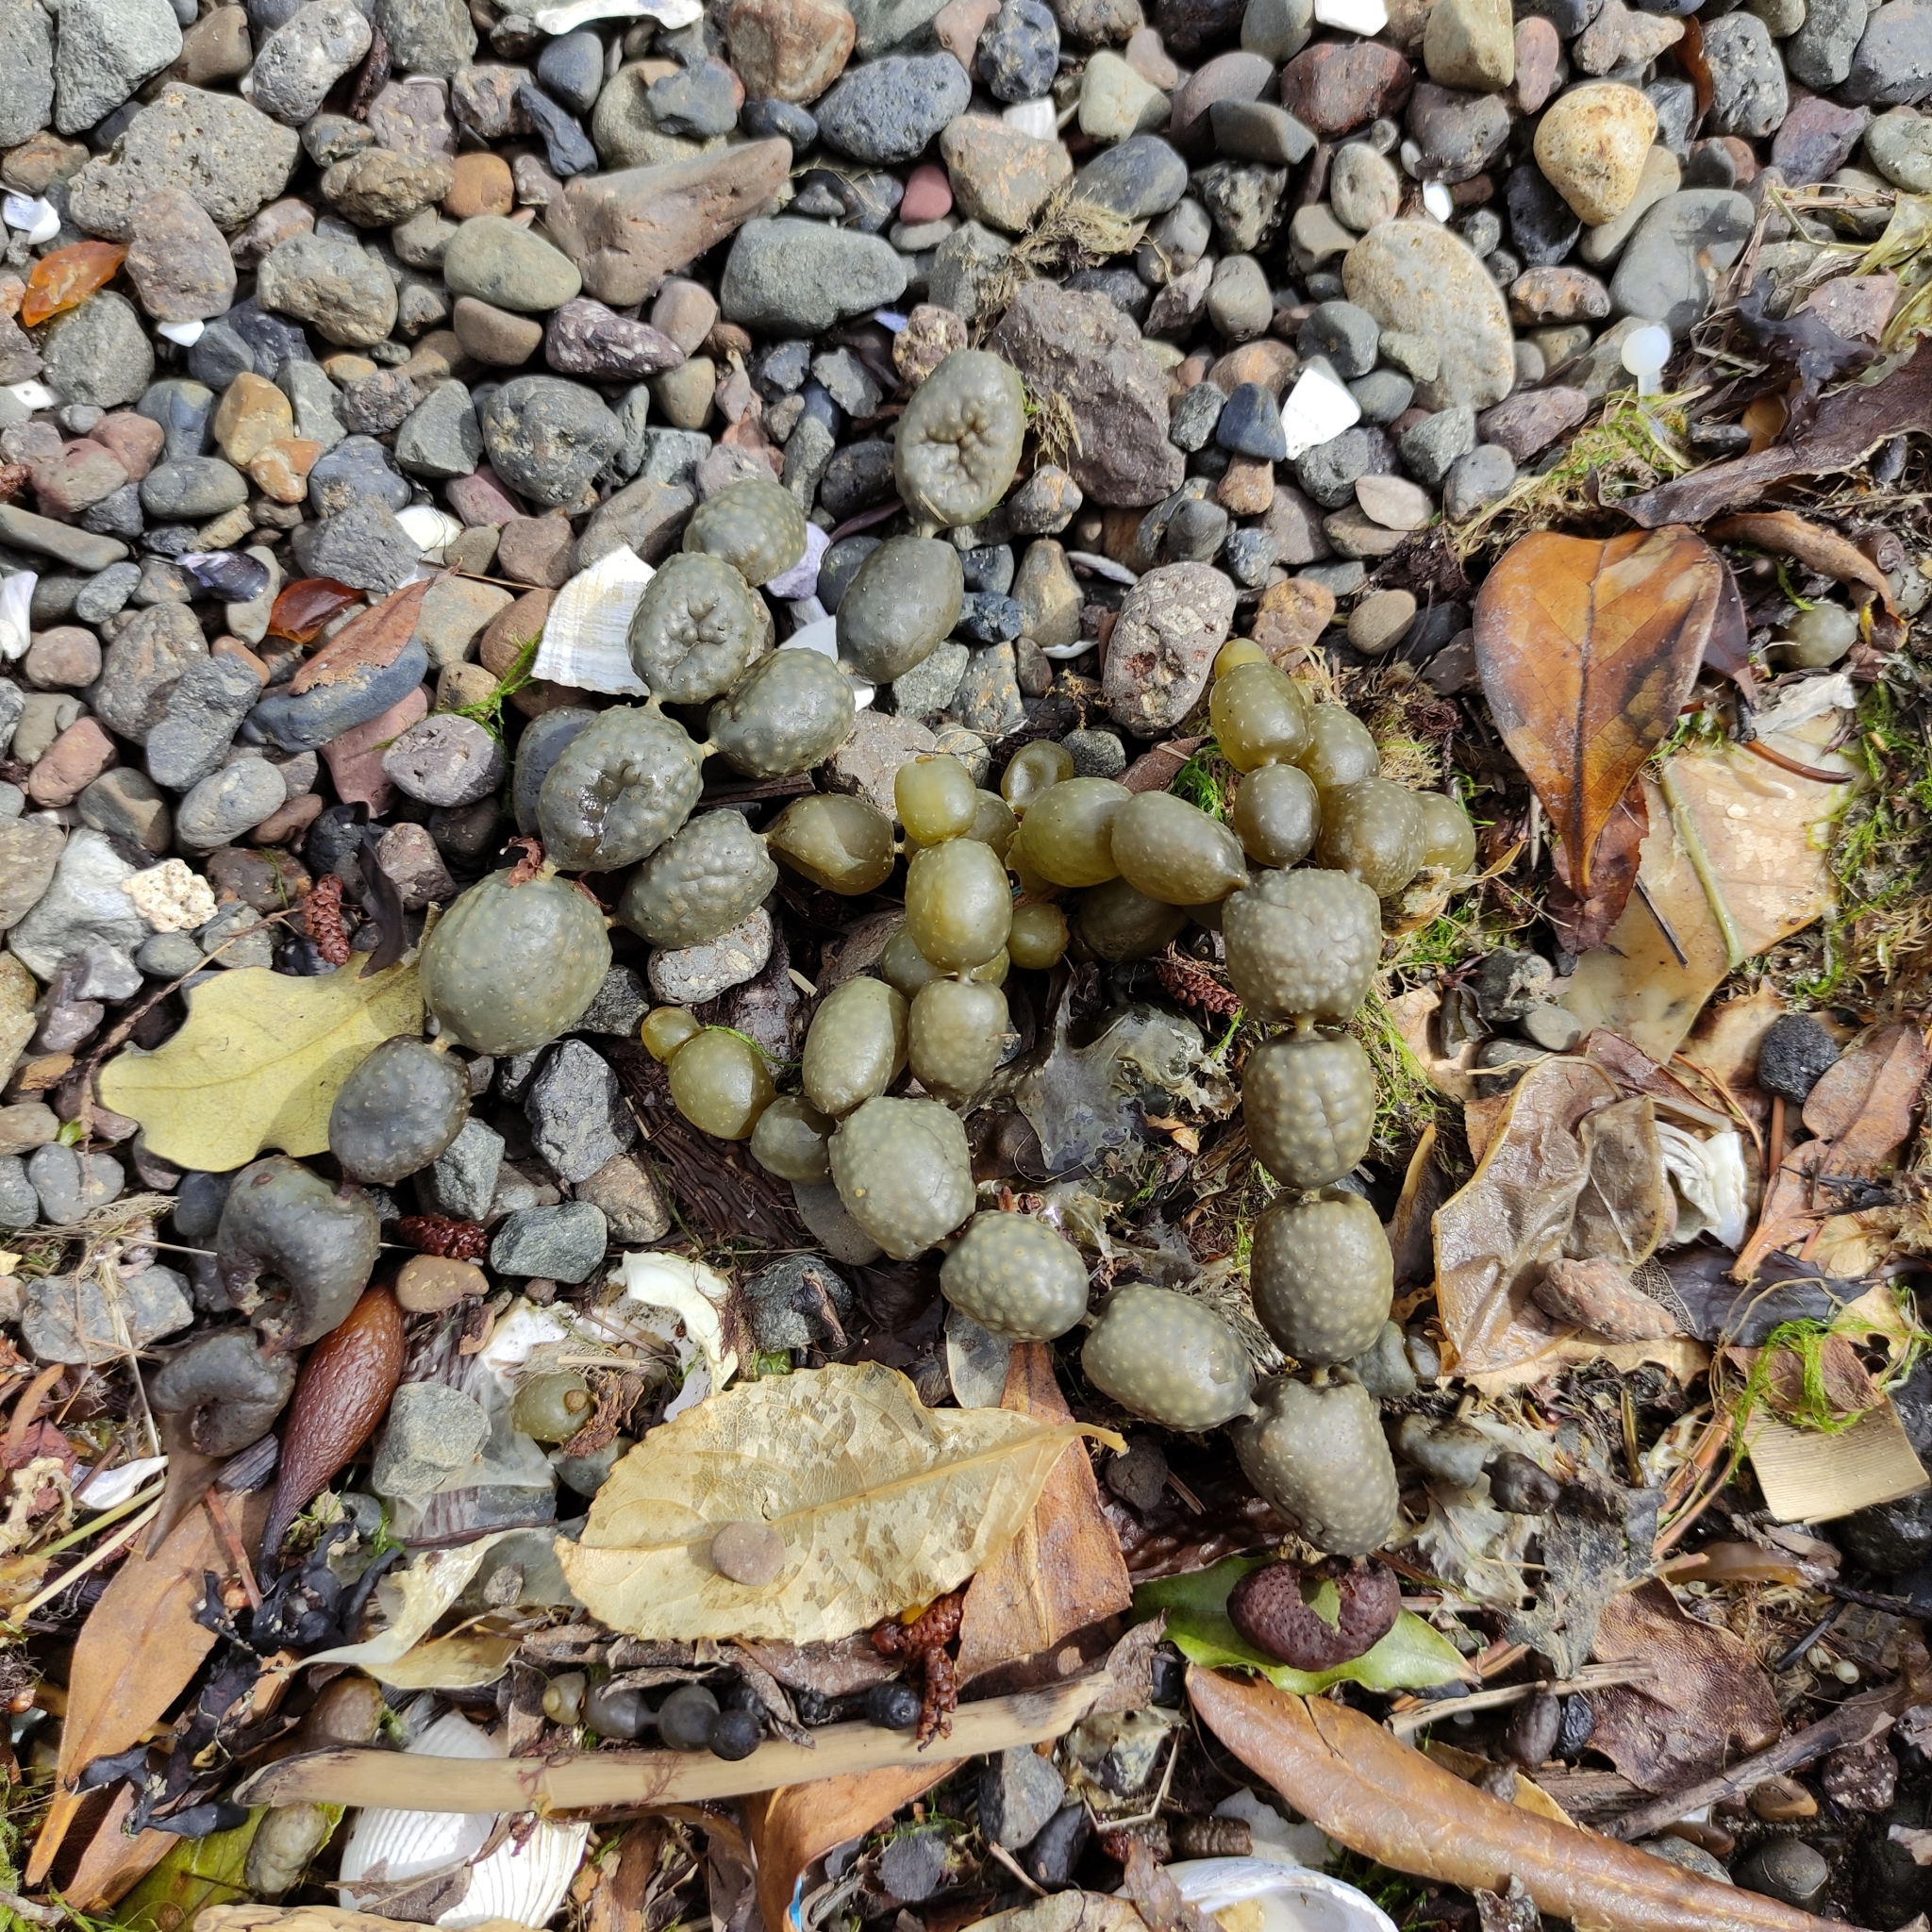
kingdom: Chromista
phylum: Ochrophyta
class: Phaeophyceae
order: Fucales
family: Hormosiraceae
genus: Hormosira
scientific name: Hormosira banksii
